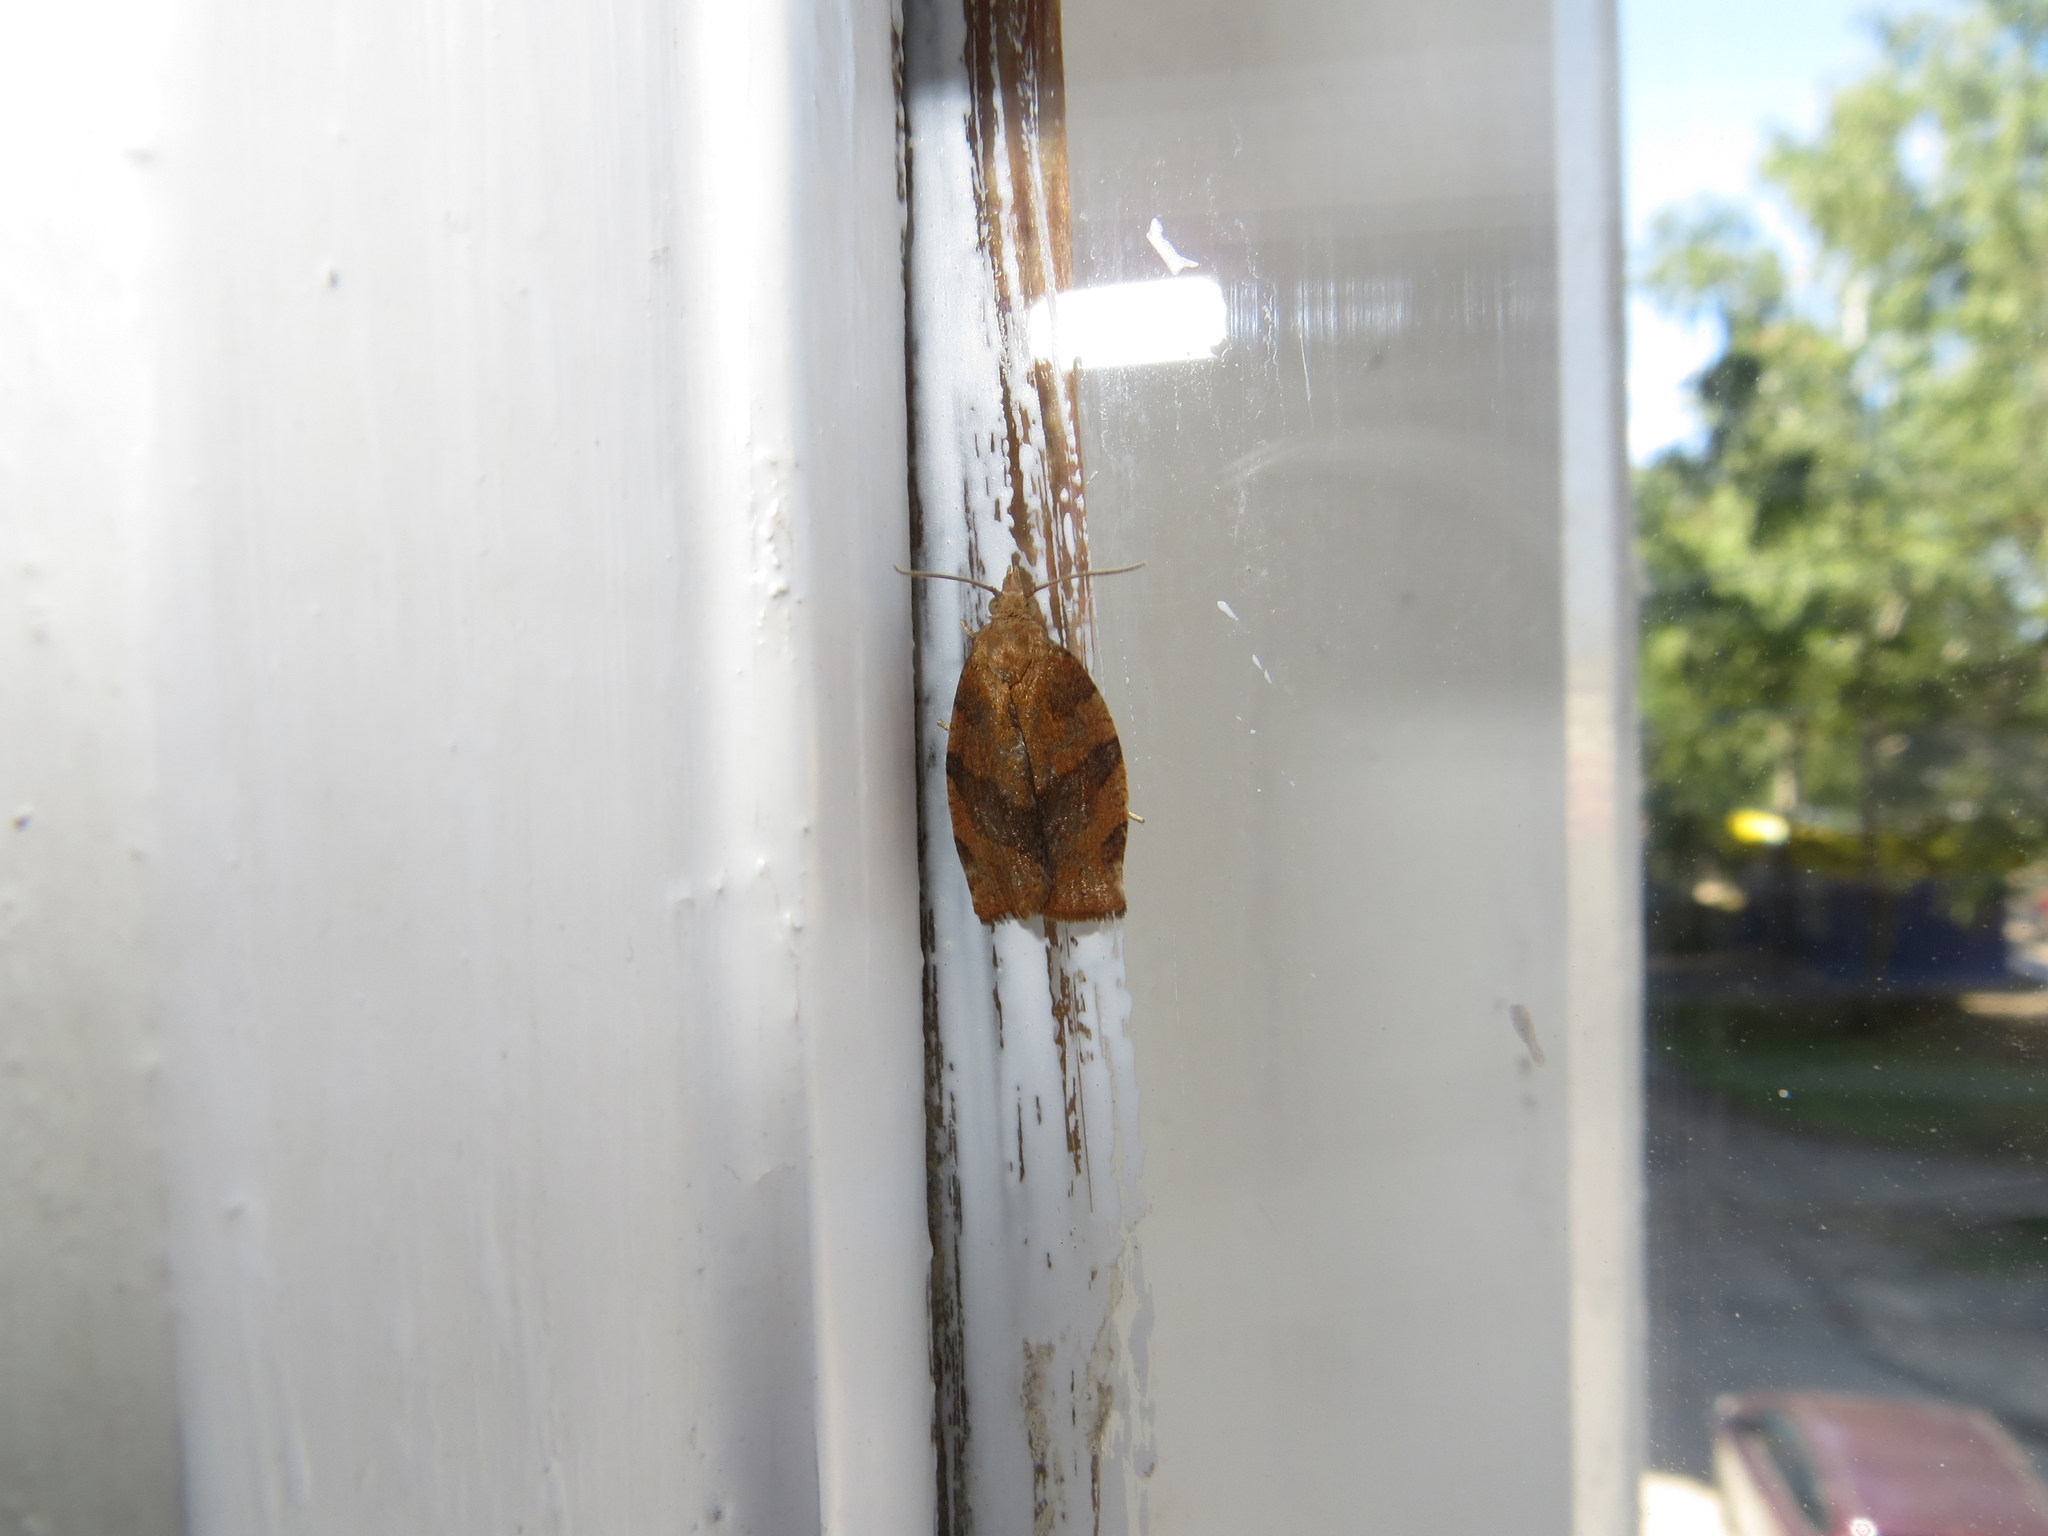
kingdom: Animalia
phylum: Arthropoda
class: Insecta
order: Lepidoptera
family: Tortricidae
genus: Pandemis
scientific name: Pandemis heparana
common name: Dark fruit-tree tortrix
